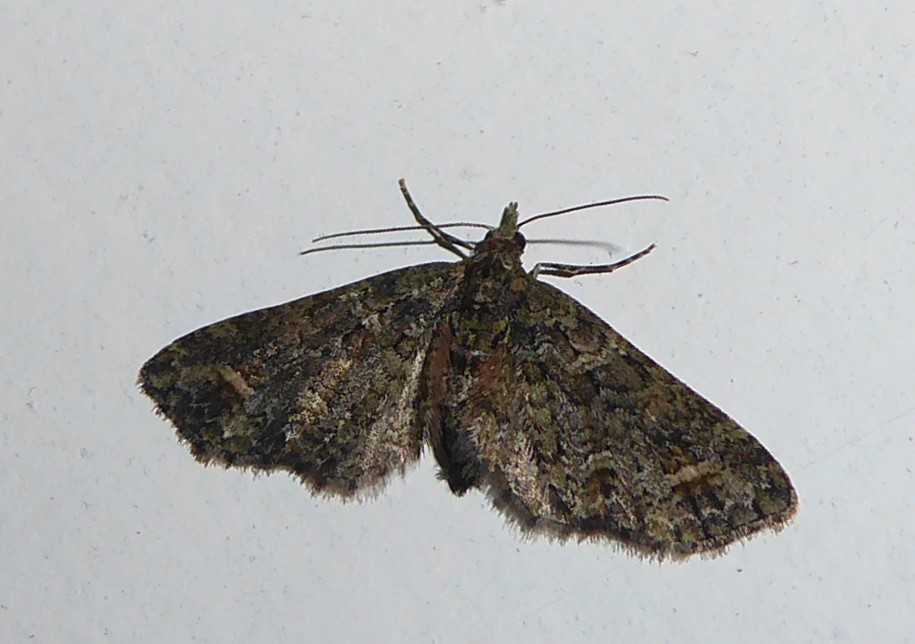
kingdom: Animalia
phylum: Arthropoda
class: Insecta
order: Lepidoptera
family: Geometridae
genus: Idaea
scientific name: Idaea mutanda
